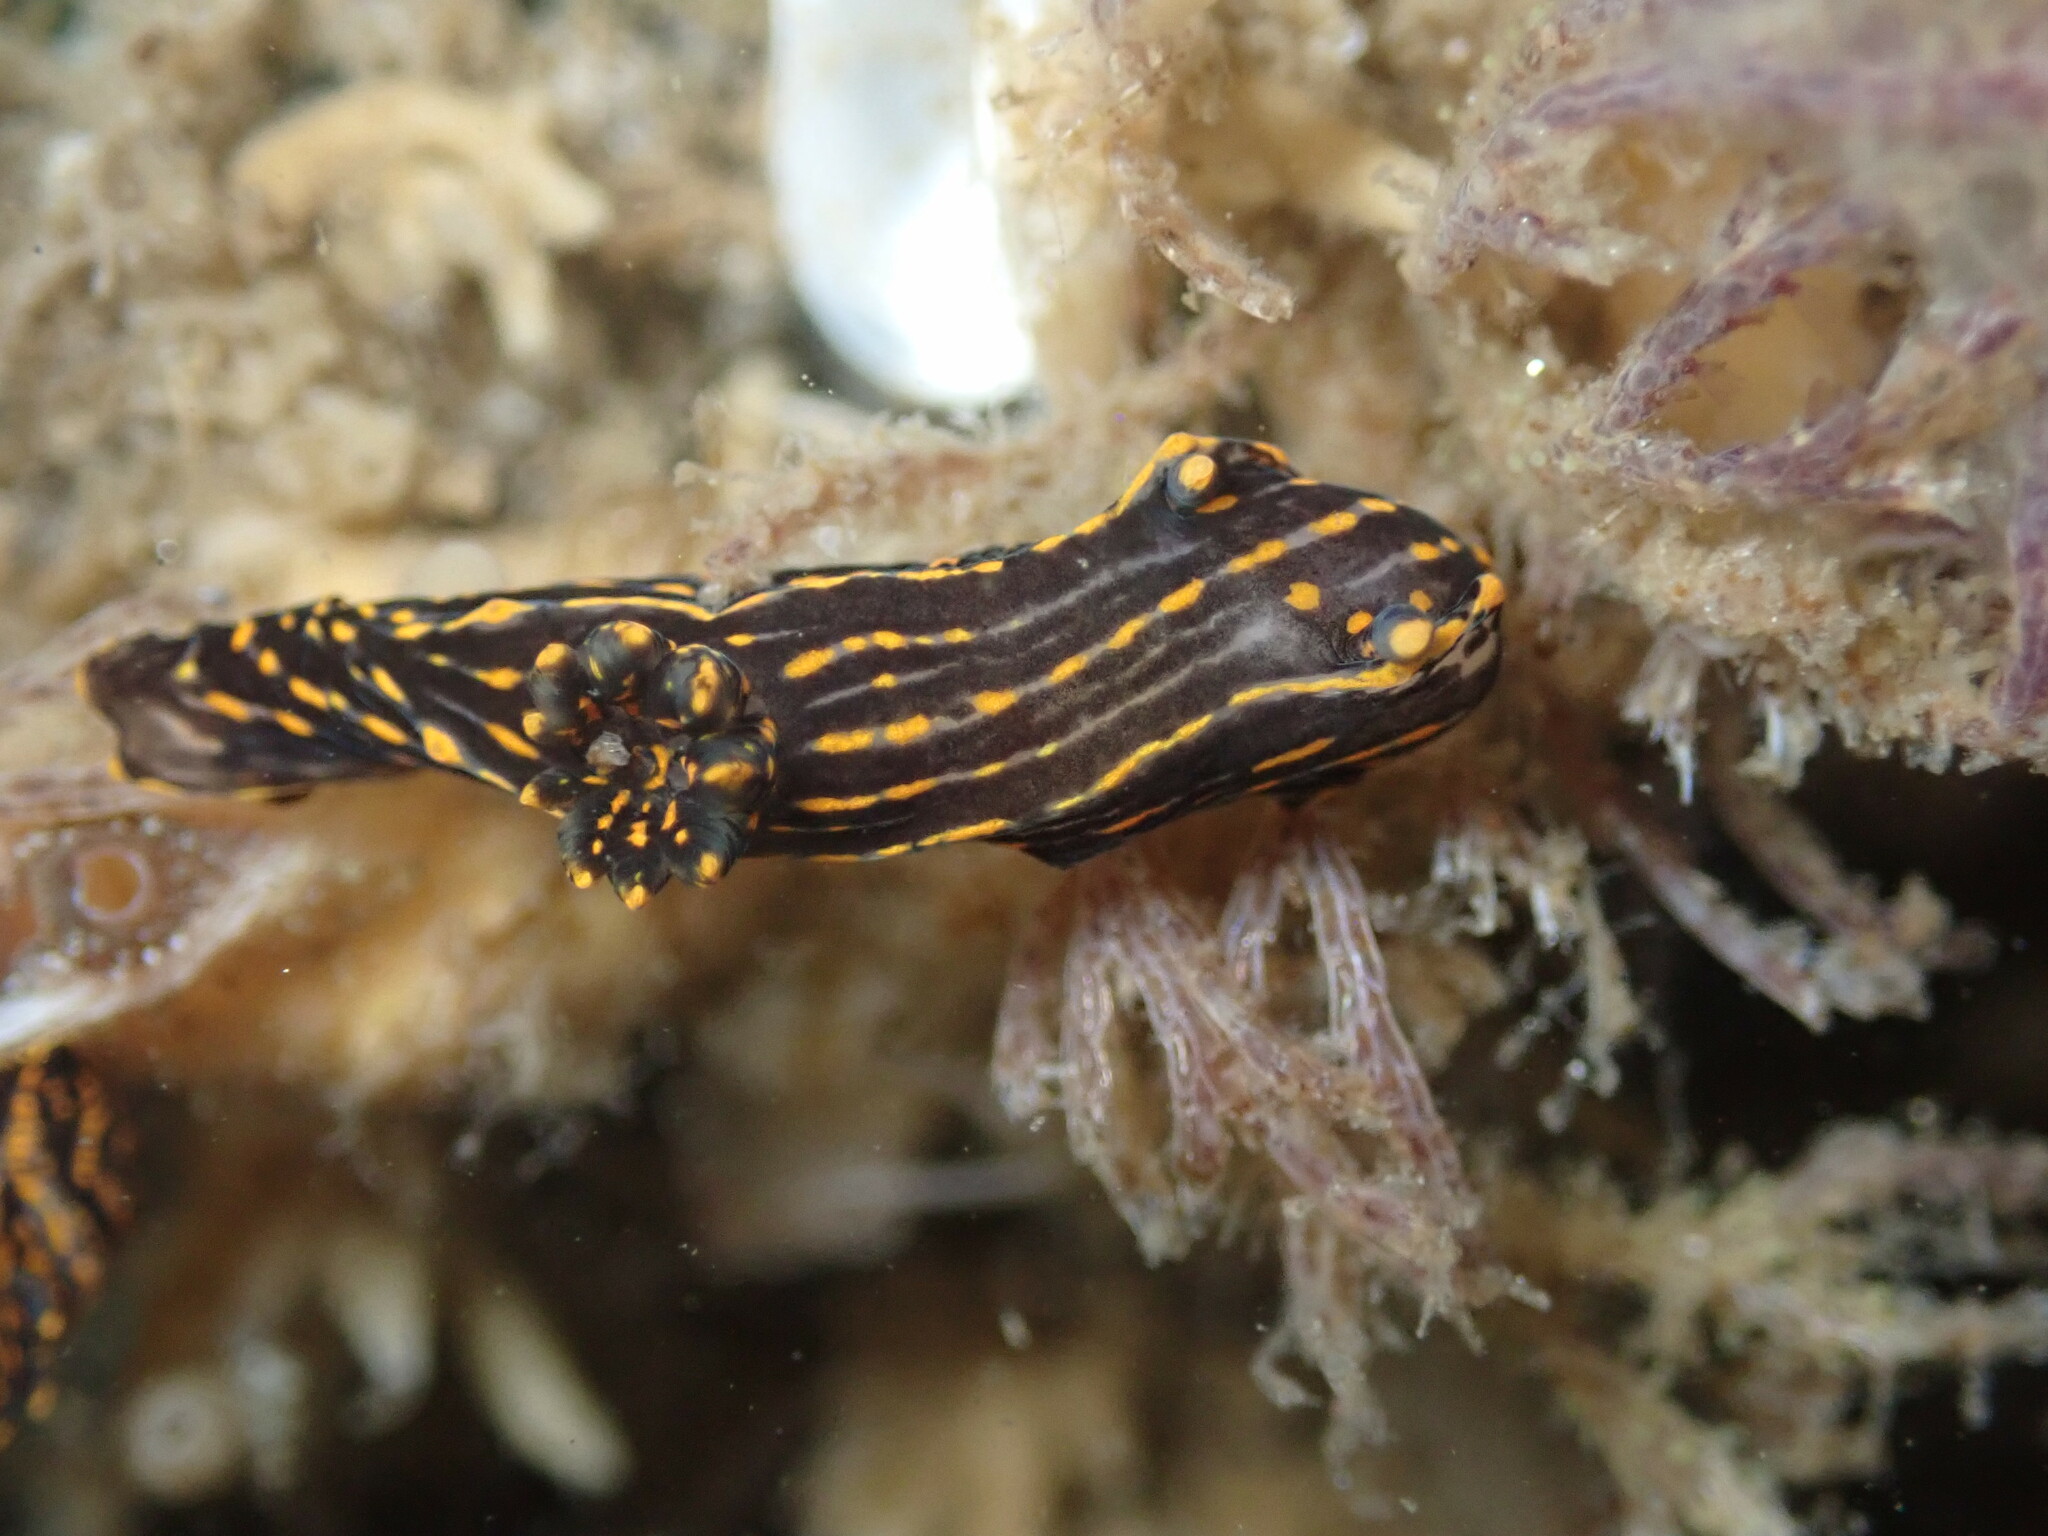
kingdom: Animalia
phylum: Mollusca
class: Gastropoda
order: Nudibranchia
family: Polyceridae
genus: Polycera
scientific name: Polycera atra
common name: Orange-spike polycera
